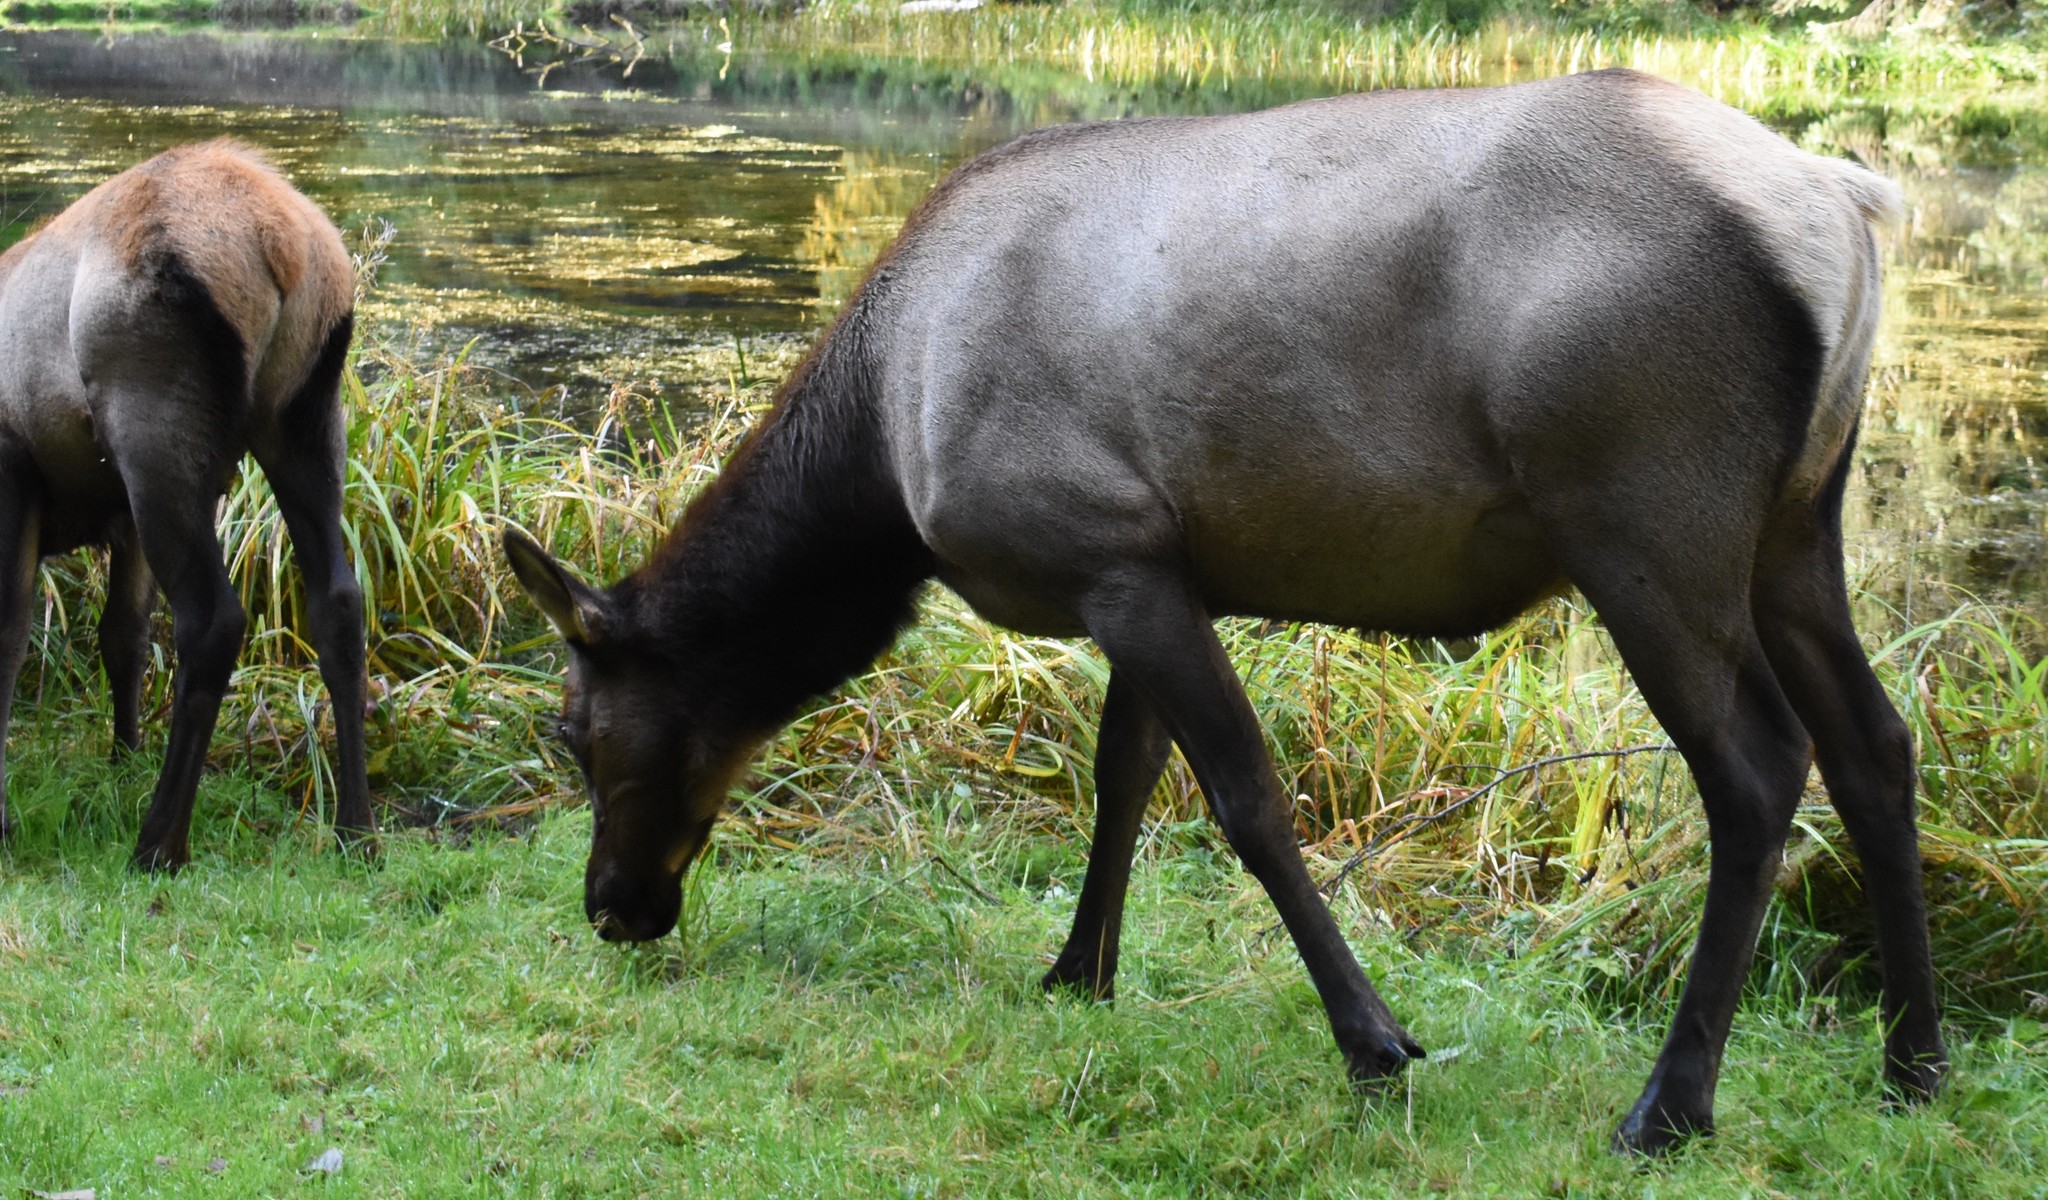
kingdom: Animalia
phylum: Chordata
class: Mammalia
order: Artiodactyla
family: Cervidae
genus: Cervus
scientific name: Cervus elaphus
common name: Red deer
